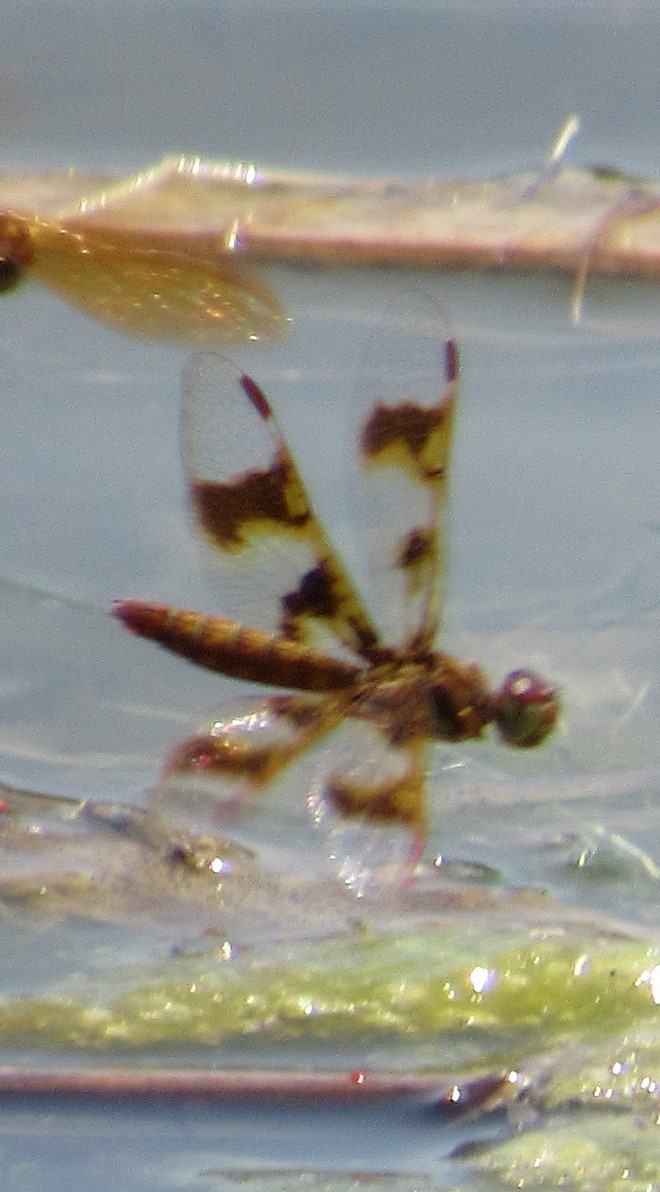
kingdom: Animalia
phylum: Arthropoda
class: Insecta
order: Odonata
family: Libellulidae
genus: Perithemis
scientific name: Perithemis tenera
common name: Eastern amberwing
